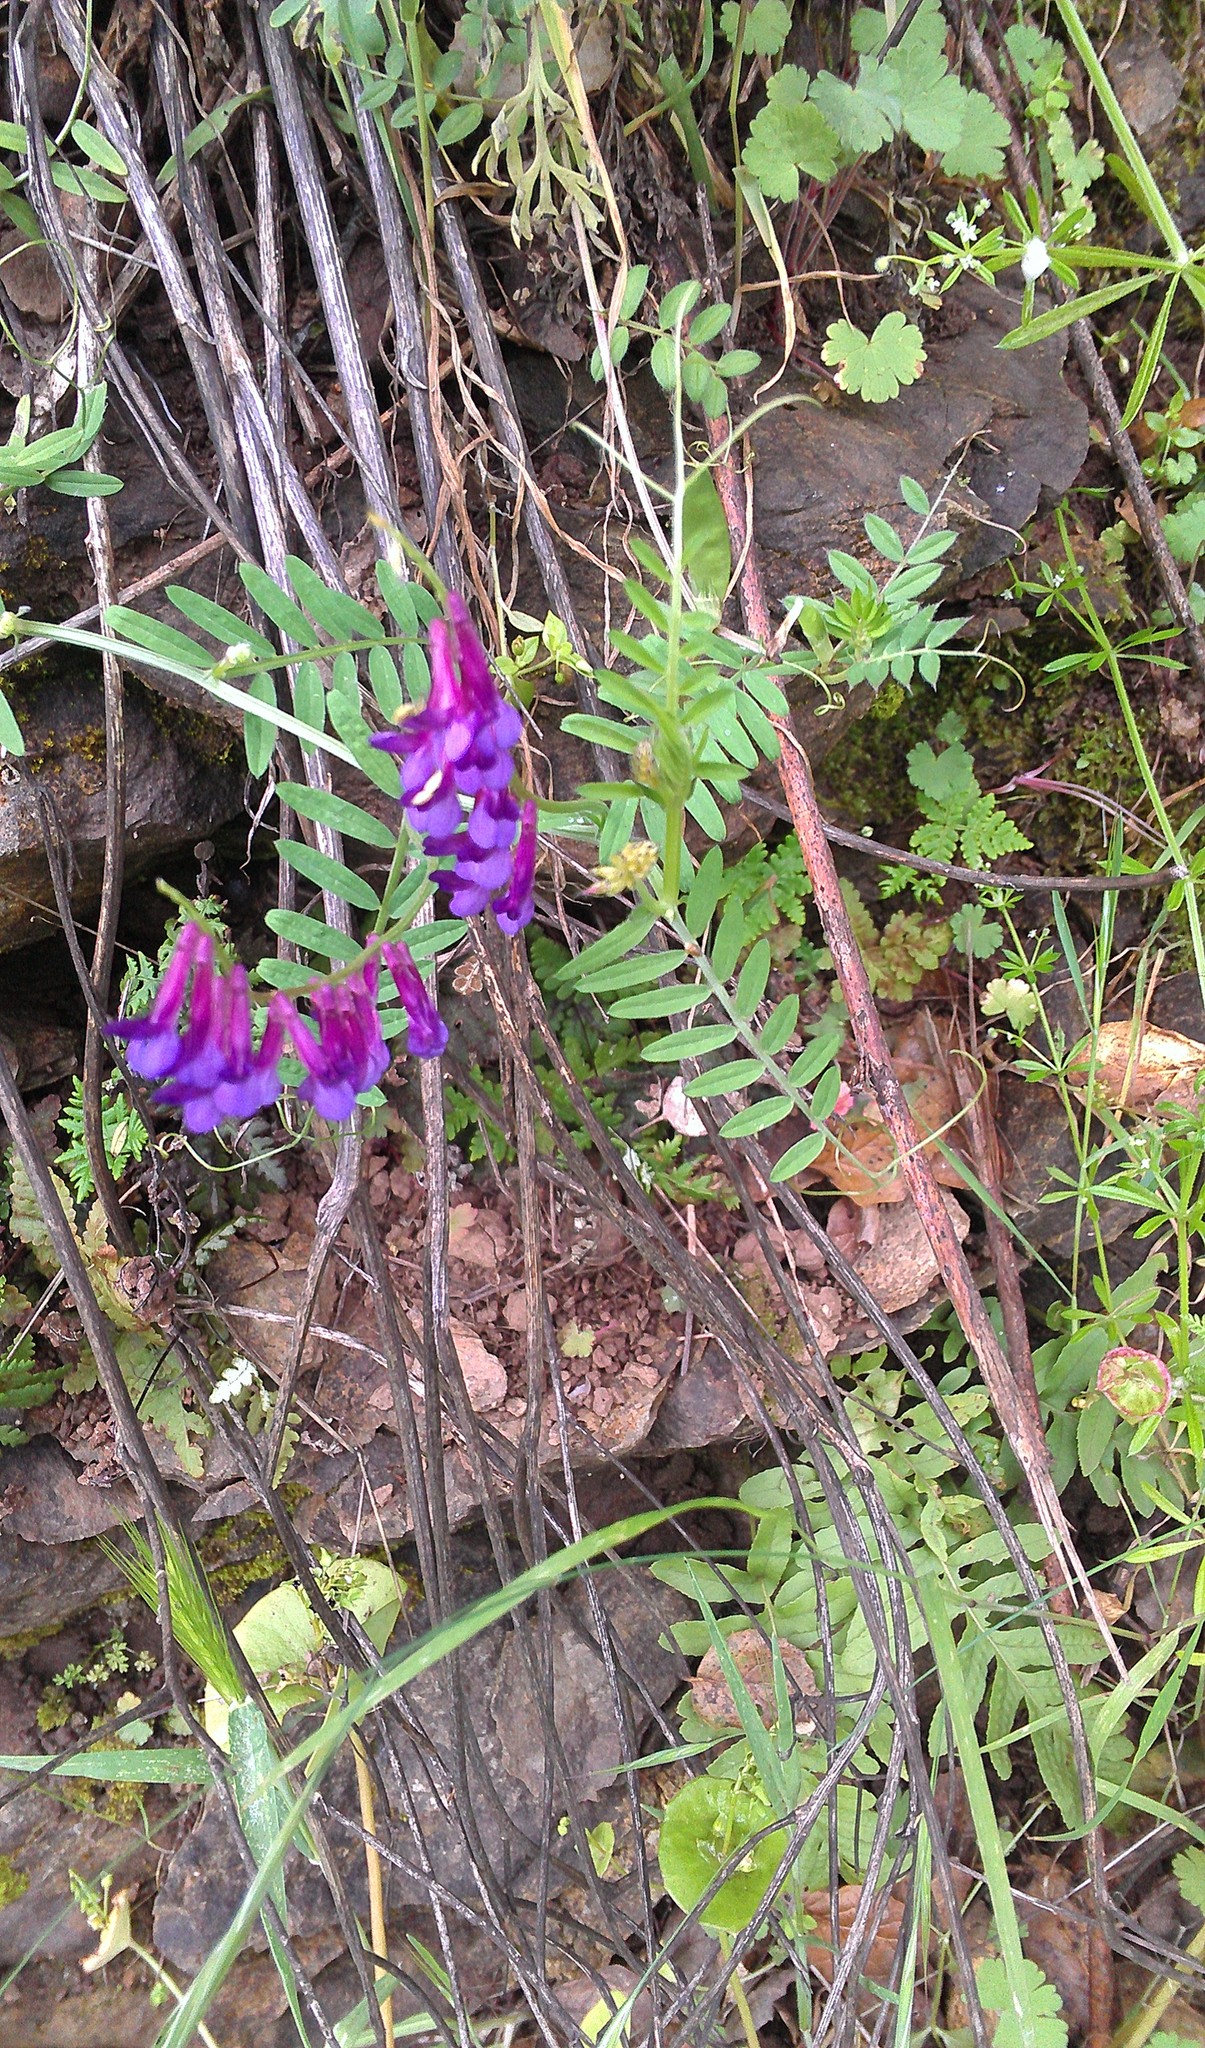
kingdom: Plantae
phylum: Tracheophyta
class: Magnoliopsida
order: Fabales
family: Fabaceae
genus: Vicia
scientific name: Vicia villosa
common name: Fodder vetch
